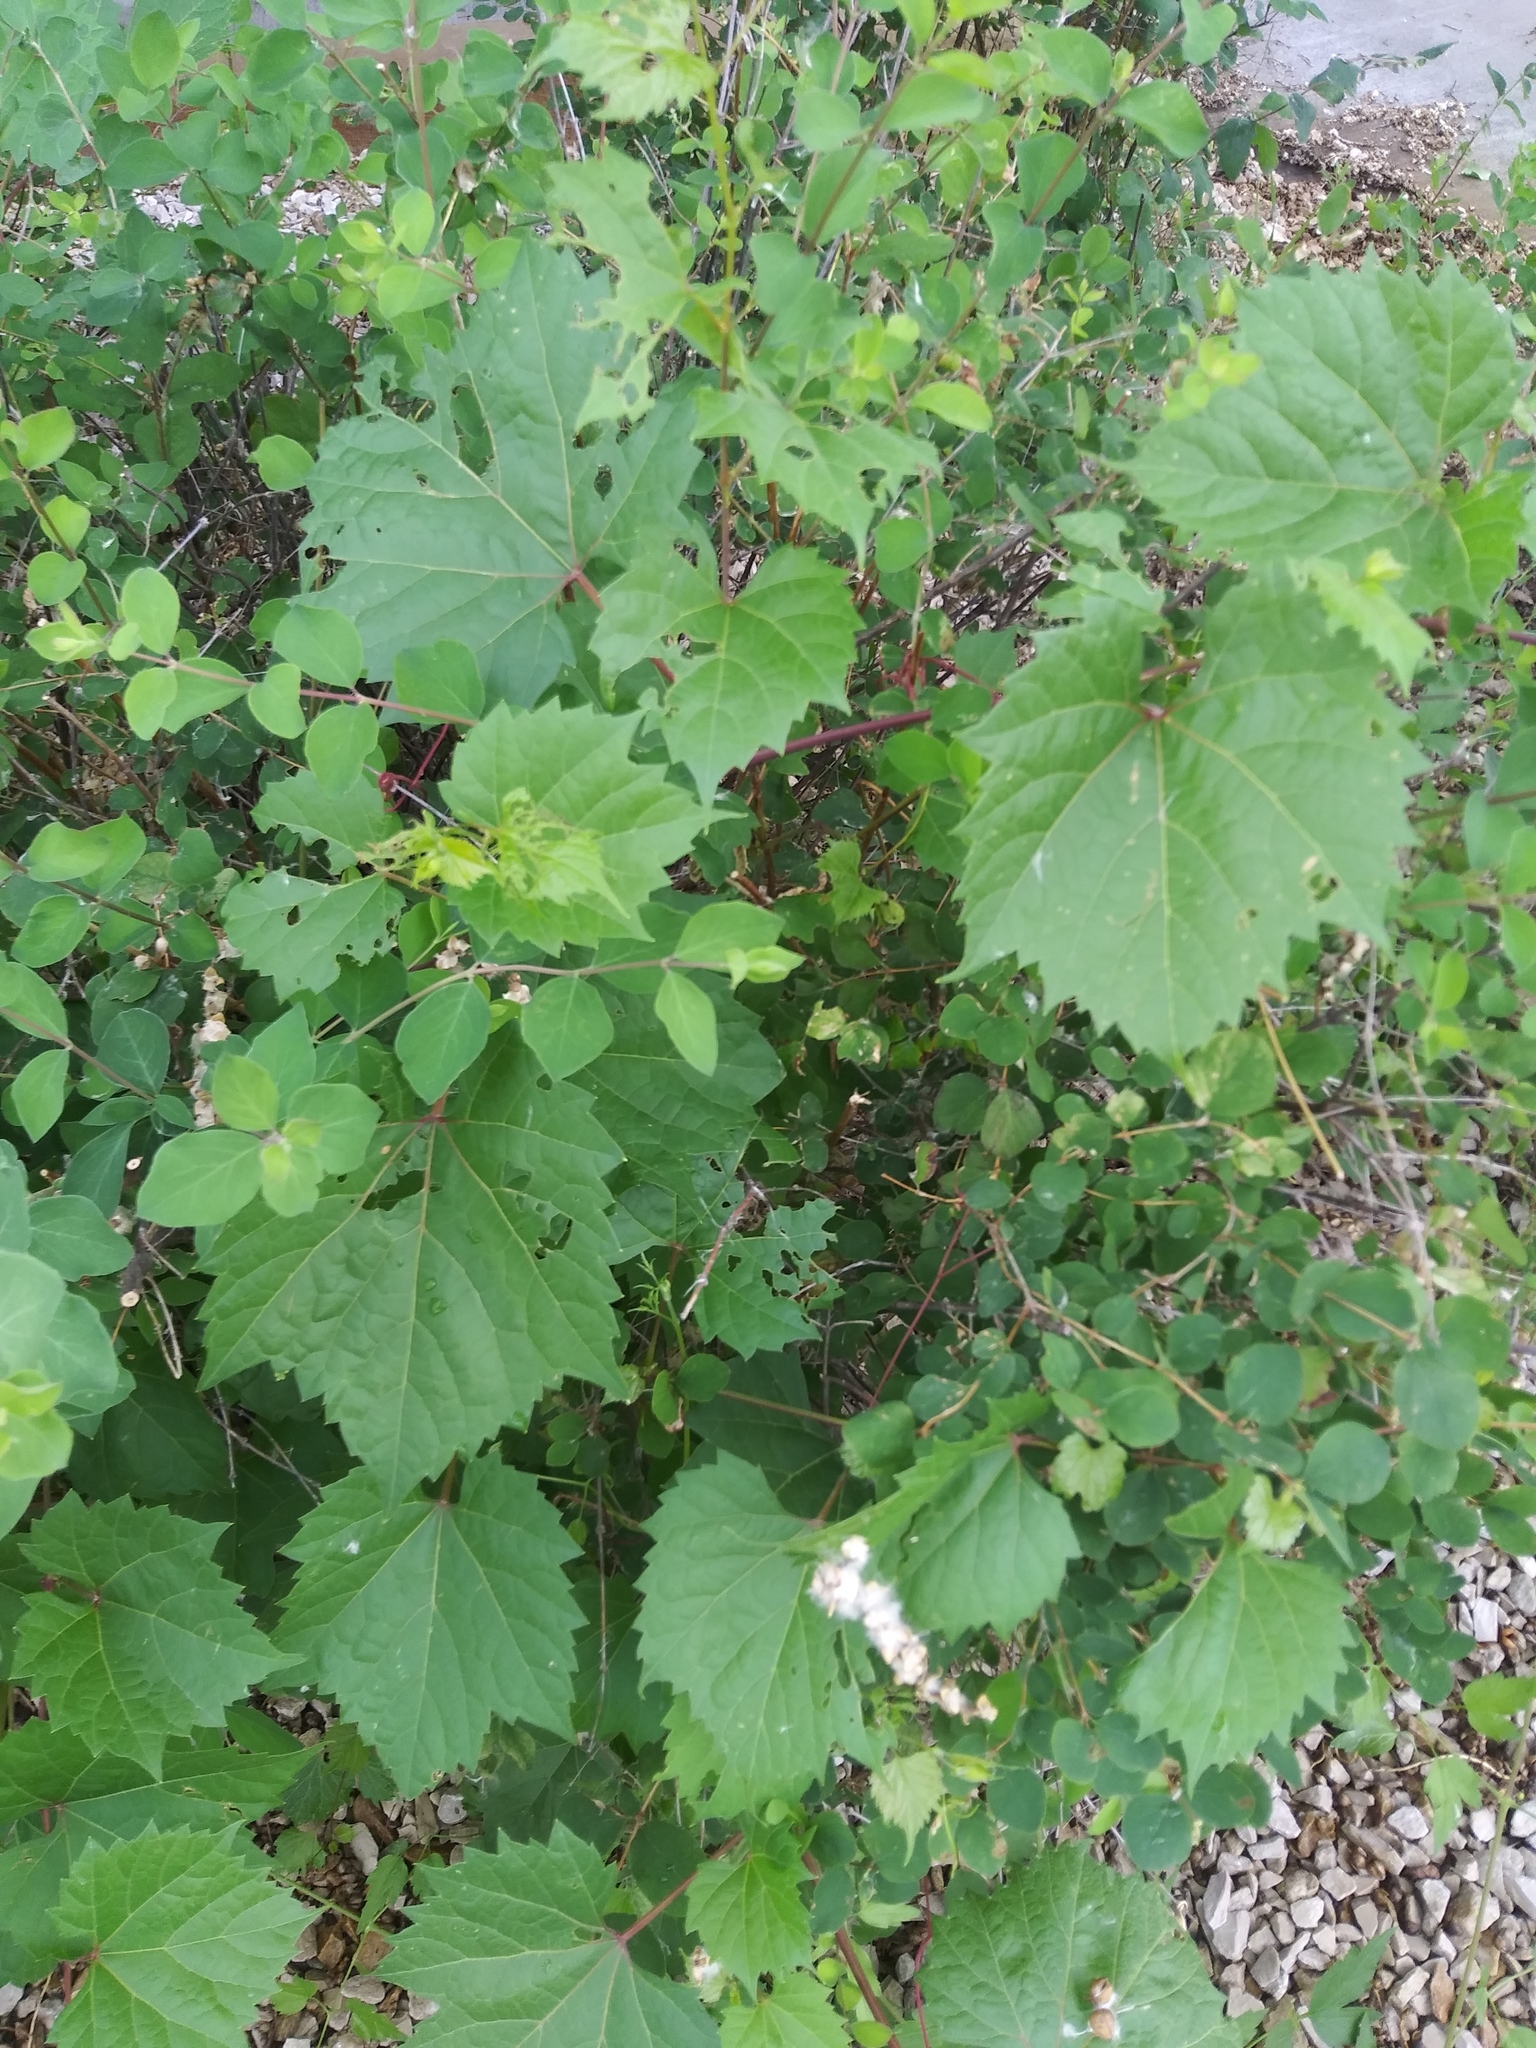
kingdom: Plantae
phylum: Tracheophyta
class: Magnoliopsida
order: Vitales
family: Vitaceae
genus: Vitis
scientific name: Vitis riparia
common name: Frost grape
